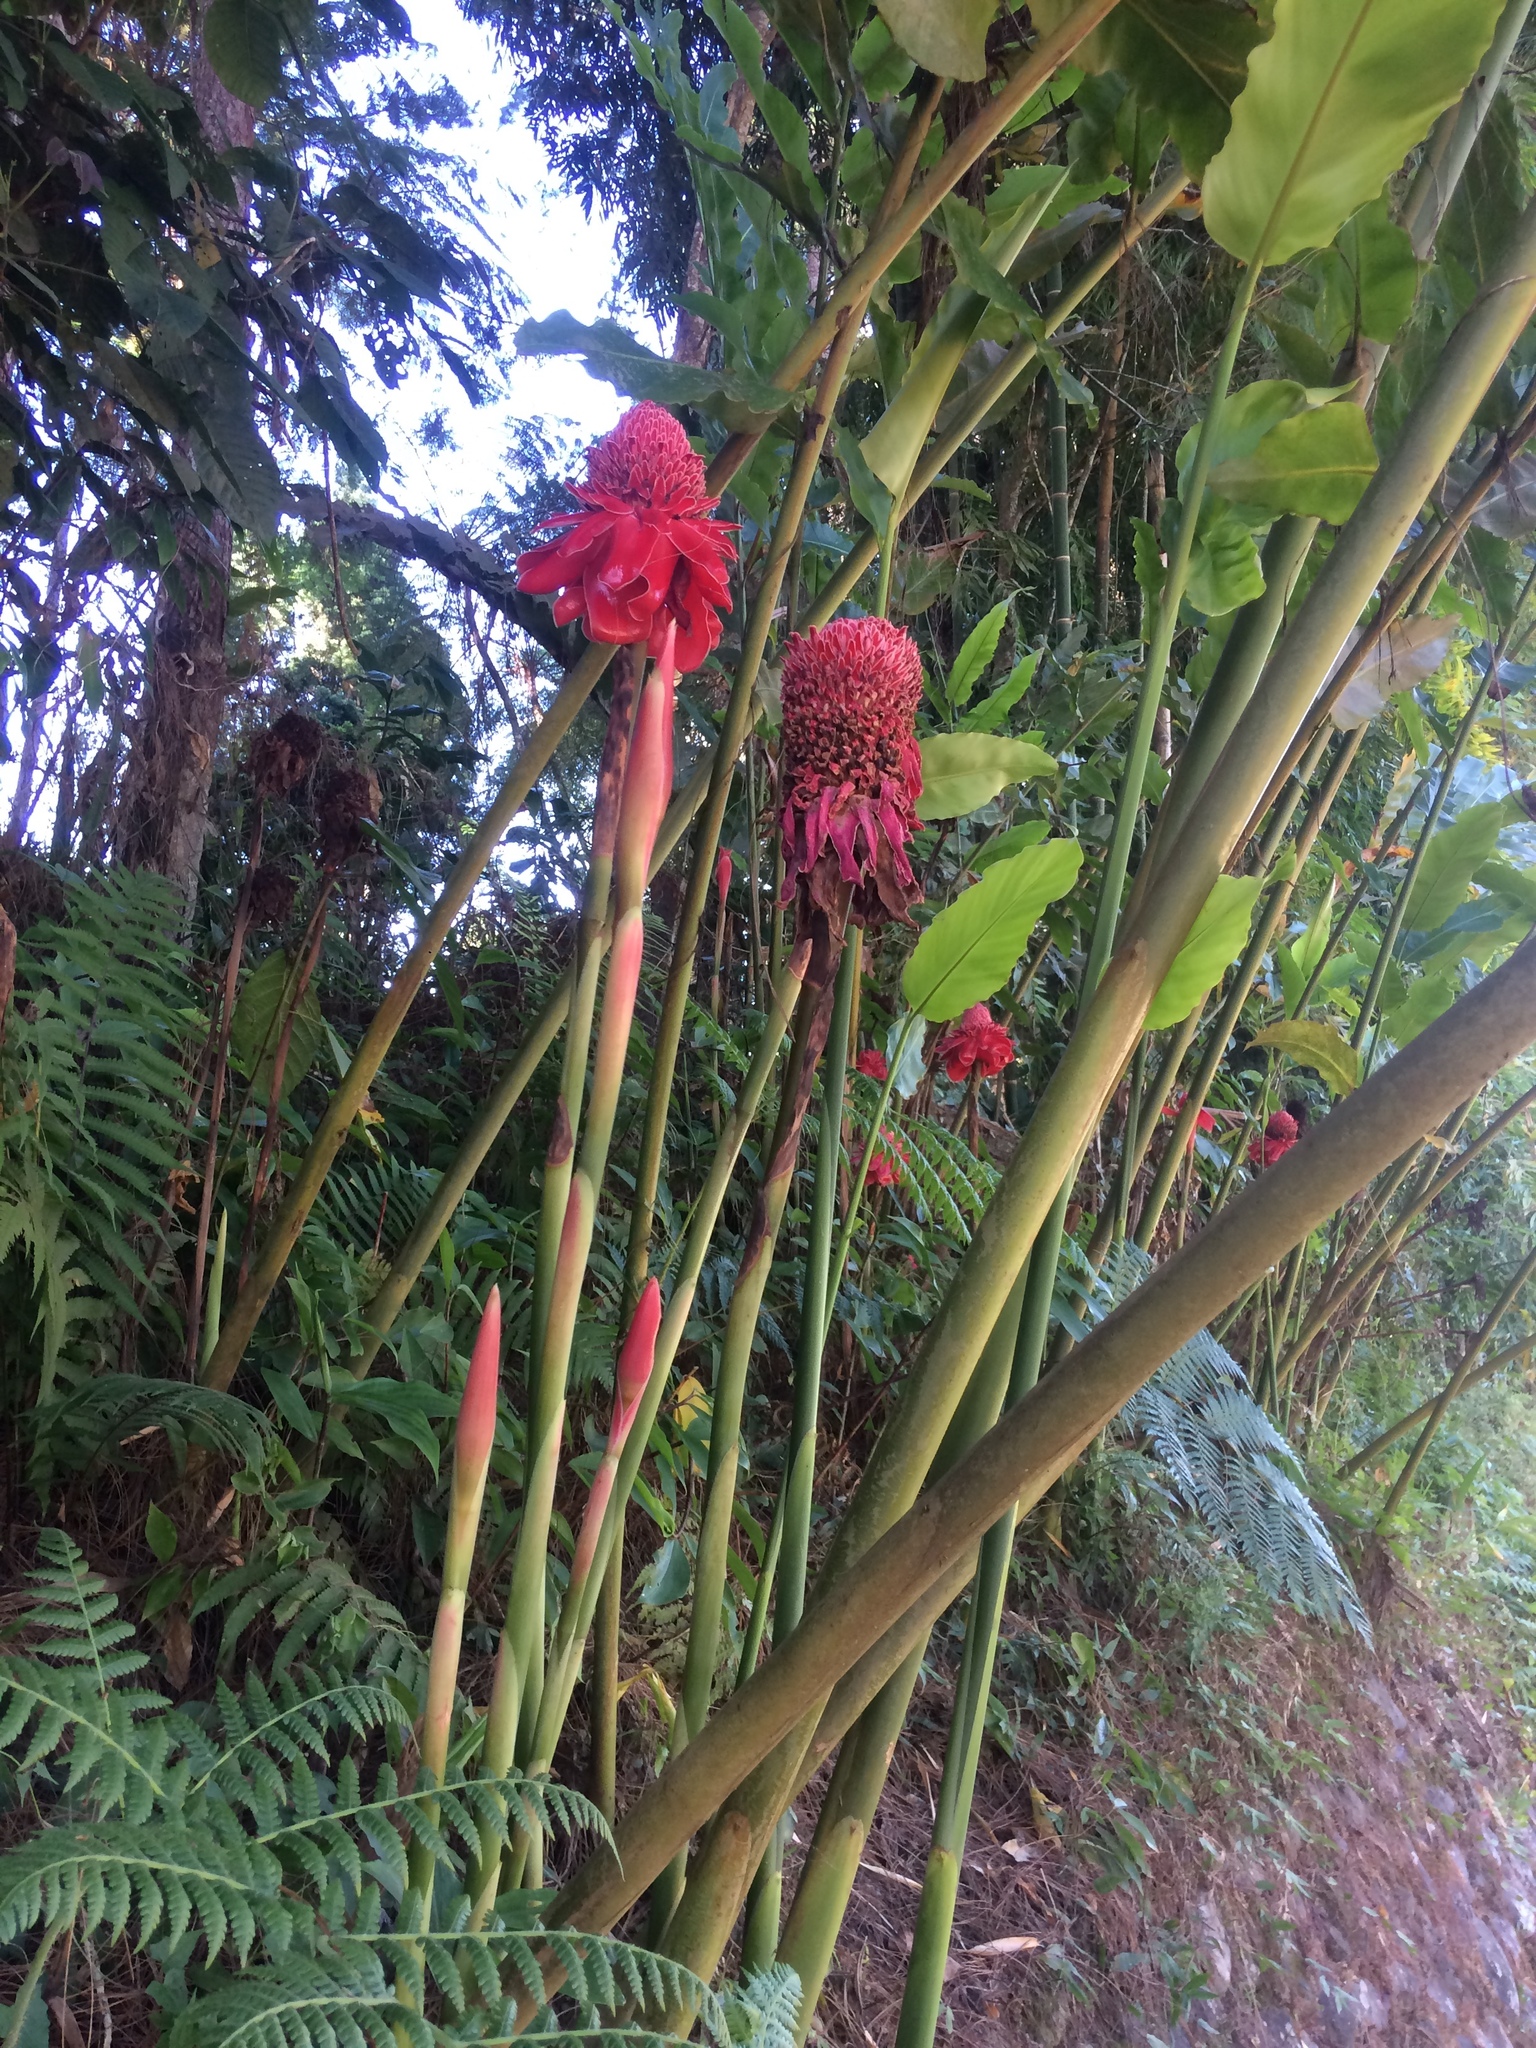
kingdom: Plantae
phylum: Tracheophyta
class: Liliopsida
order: Zingiberales
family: Zingiberaceae
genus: Etlingera
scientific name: Etlingera elatior
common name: Philippine waxflower
